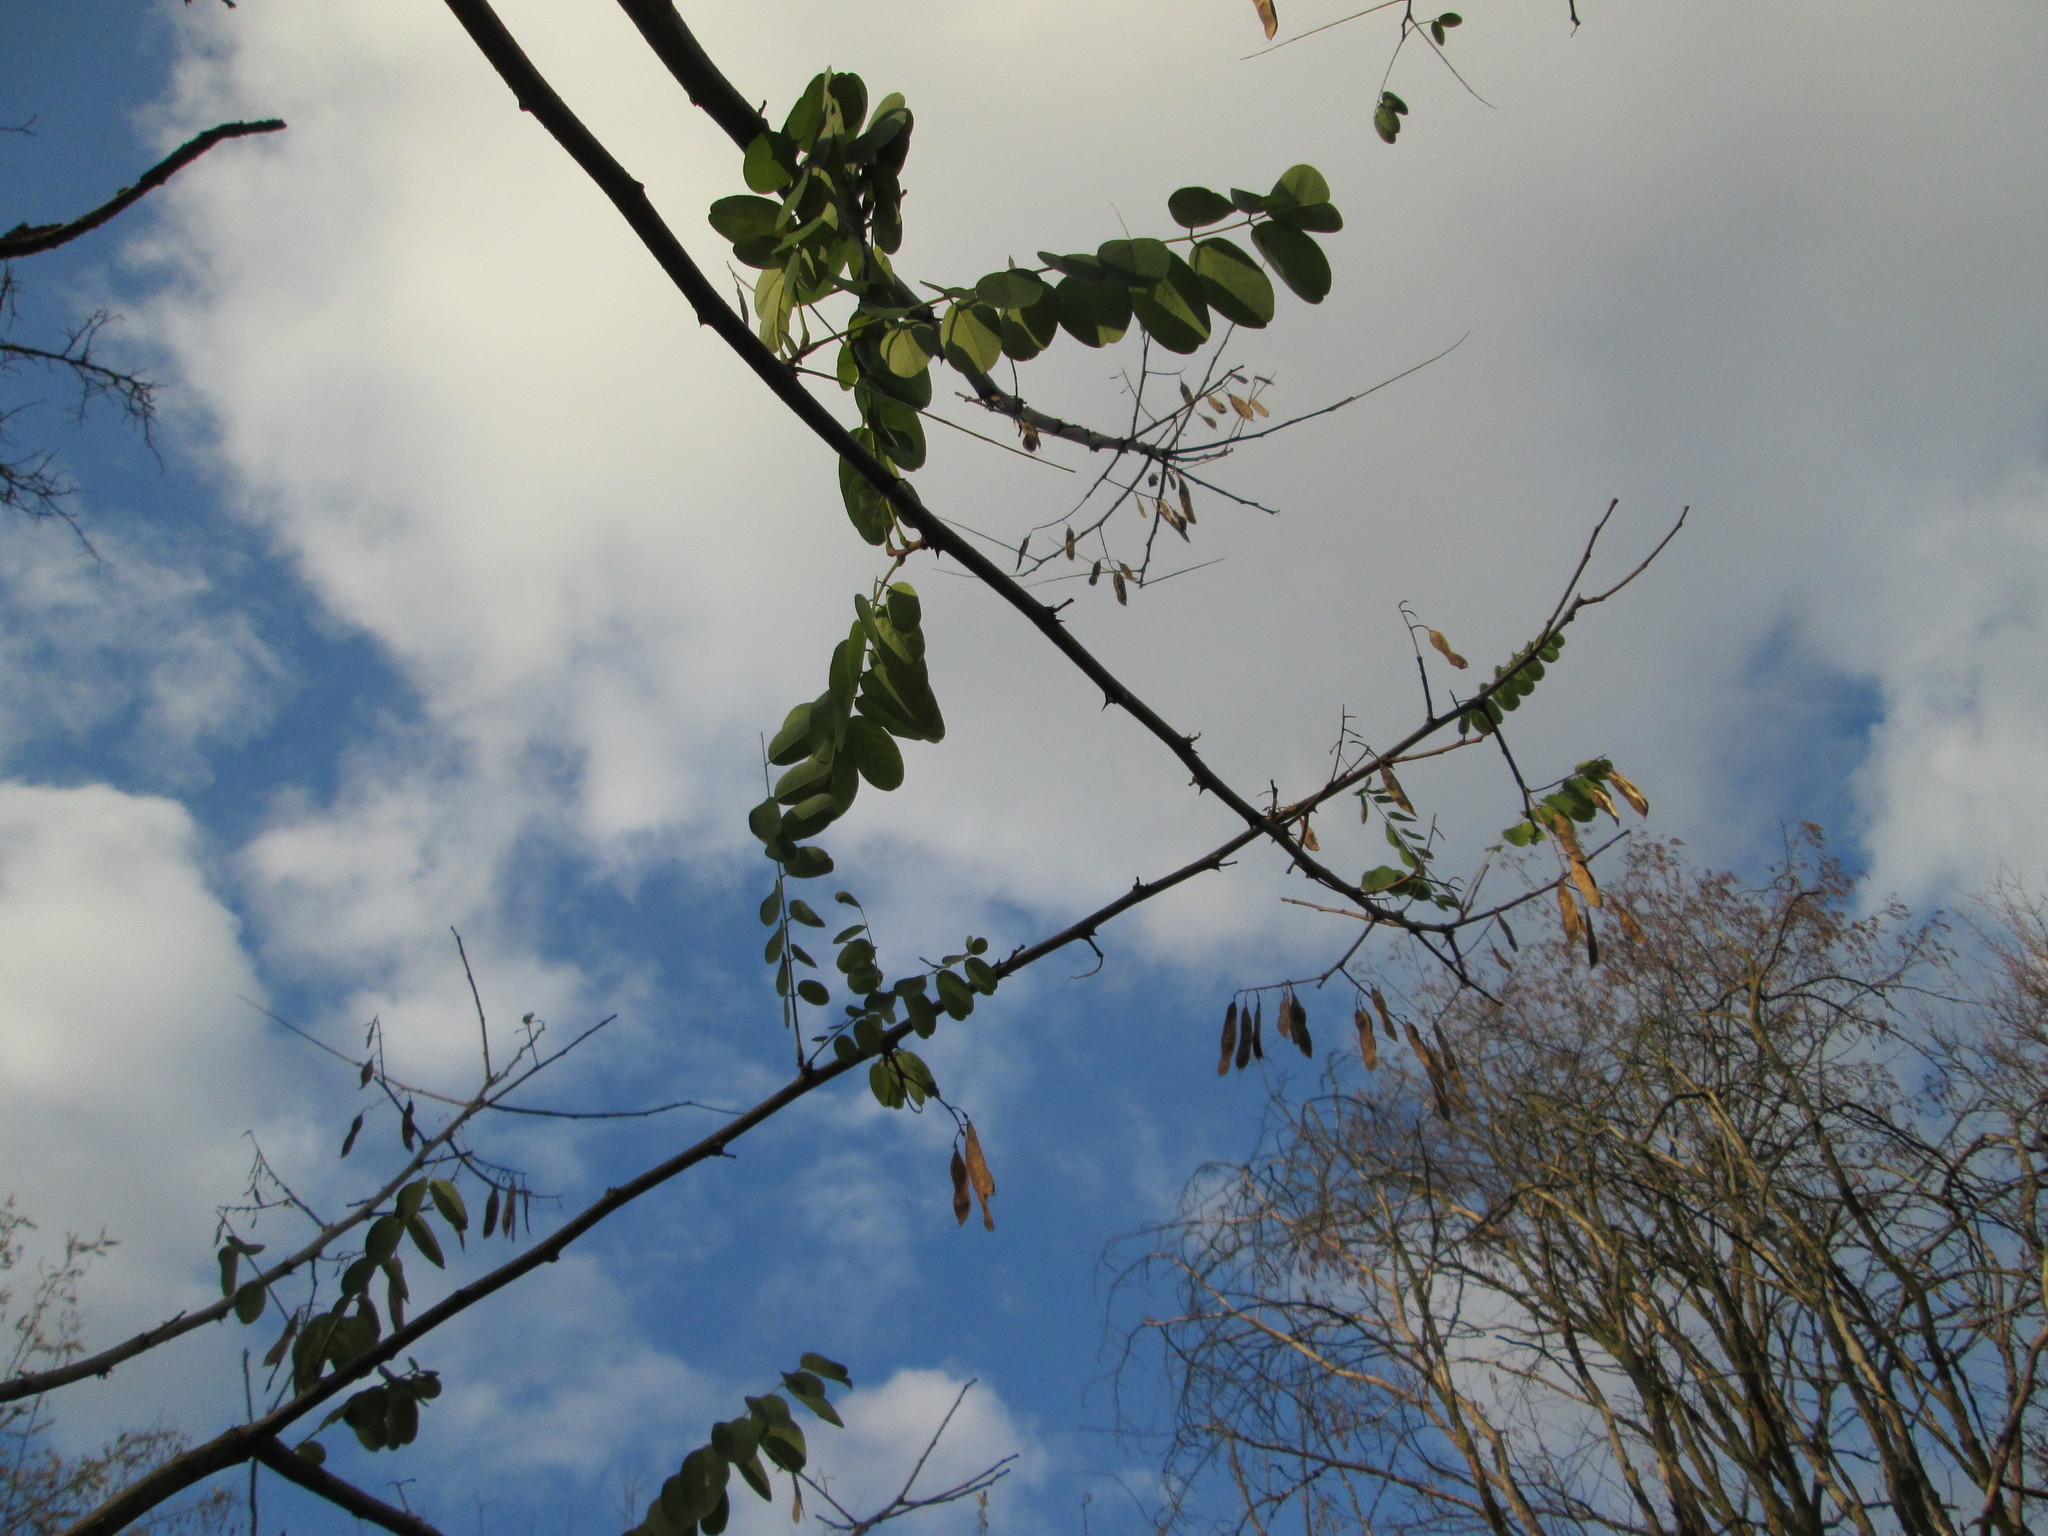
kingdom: Plantae
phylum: Tracheophyta
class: Magnoliopsida
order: Fabales
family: Fabaceae
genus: Robinia
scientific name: Robinia pseudoacacia
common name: Black locust
